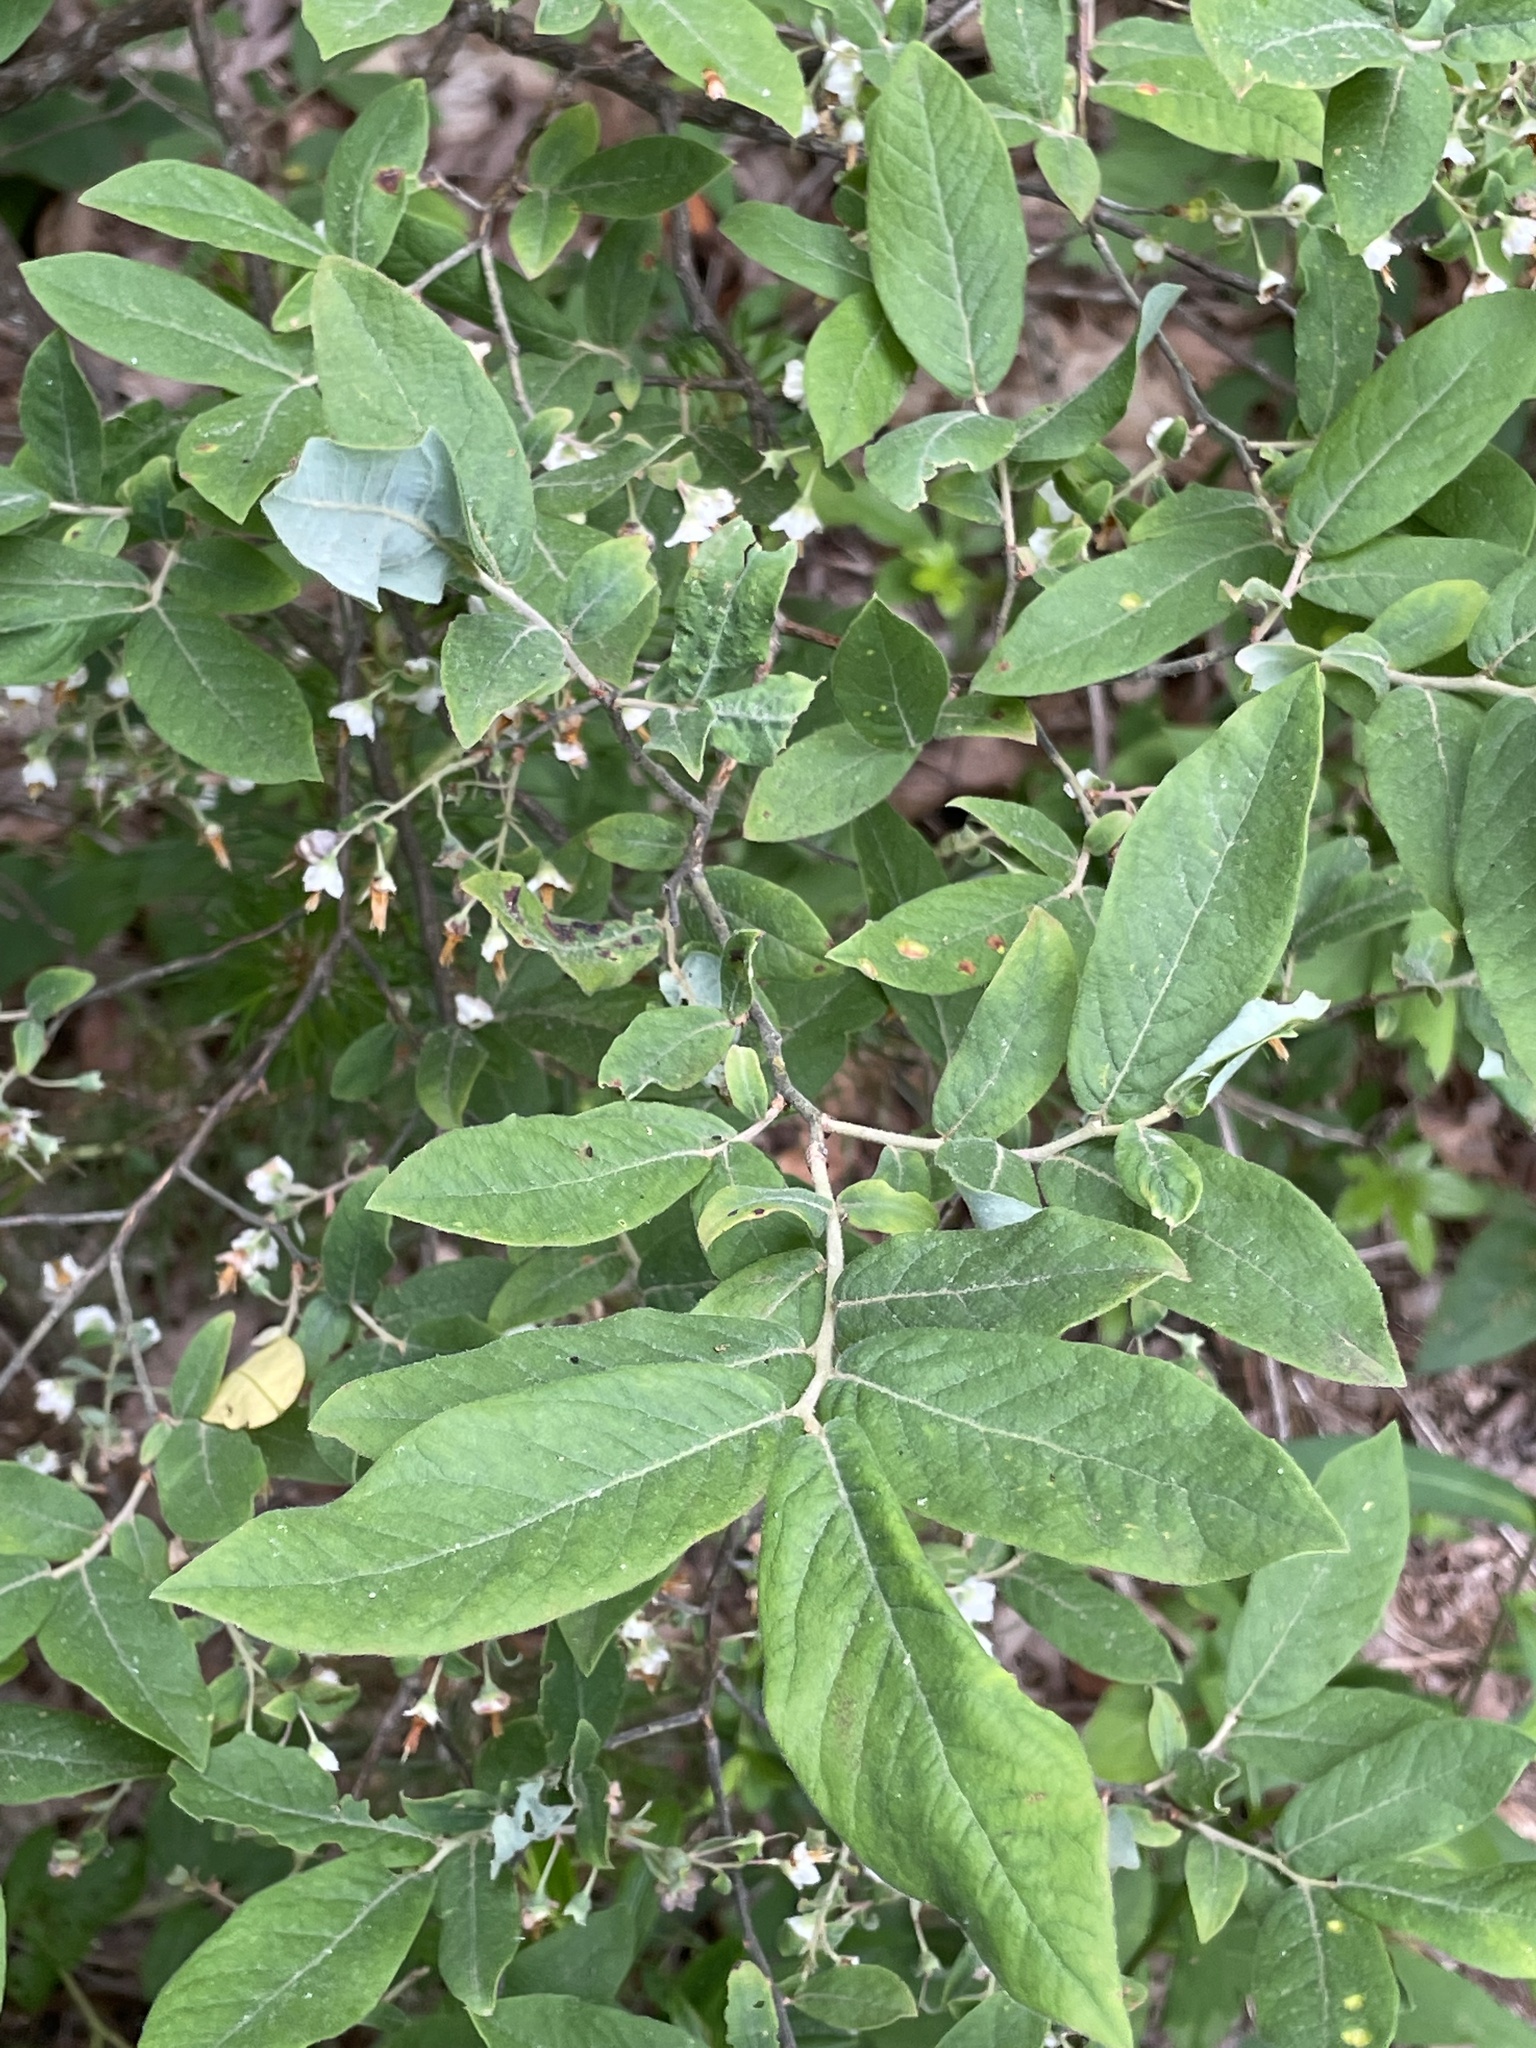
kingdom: Plantae
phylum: Tracheophyta
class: Magnoliopsida
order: Ericales
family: Ericaceae
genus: Vaccinium
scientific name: Vaccinium stamineum
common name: Deerberry
